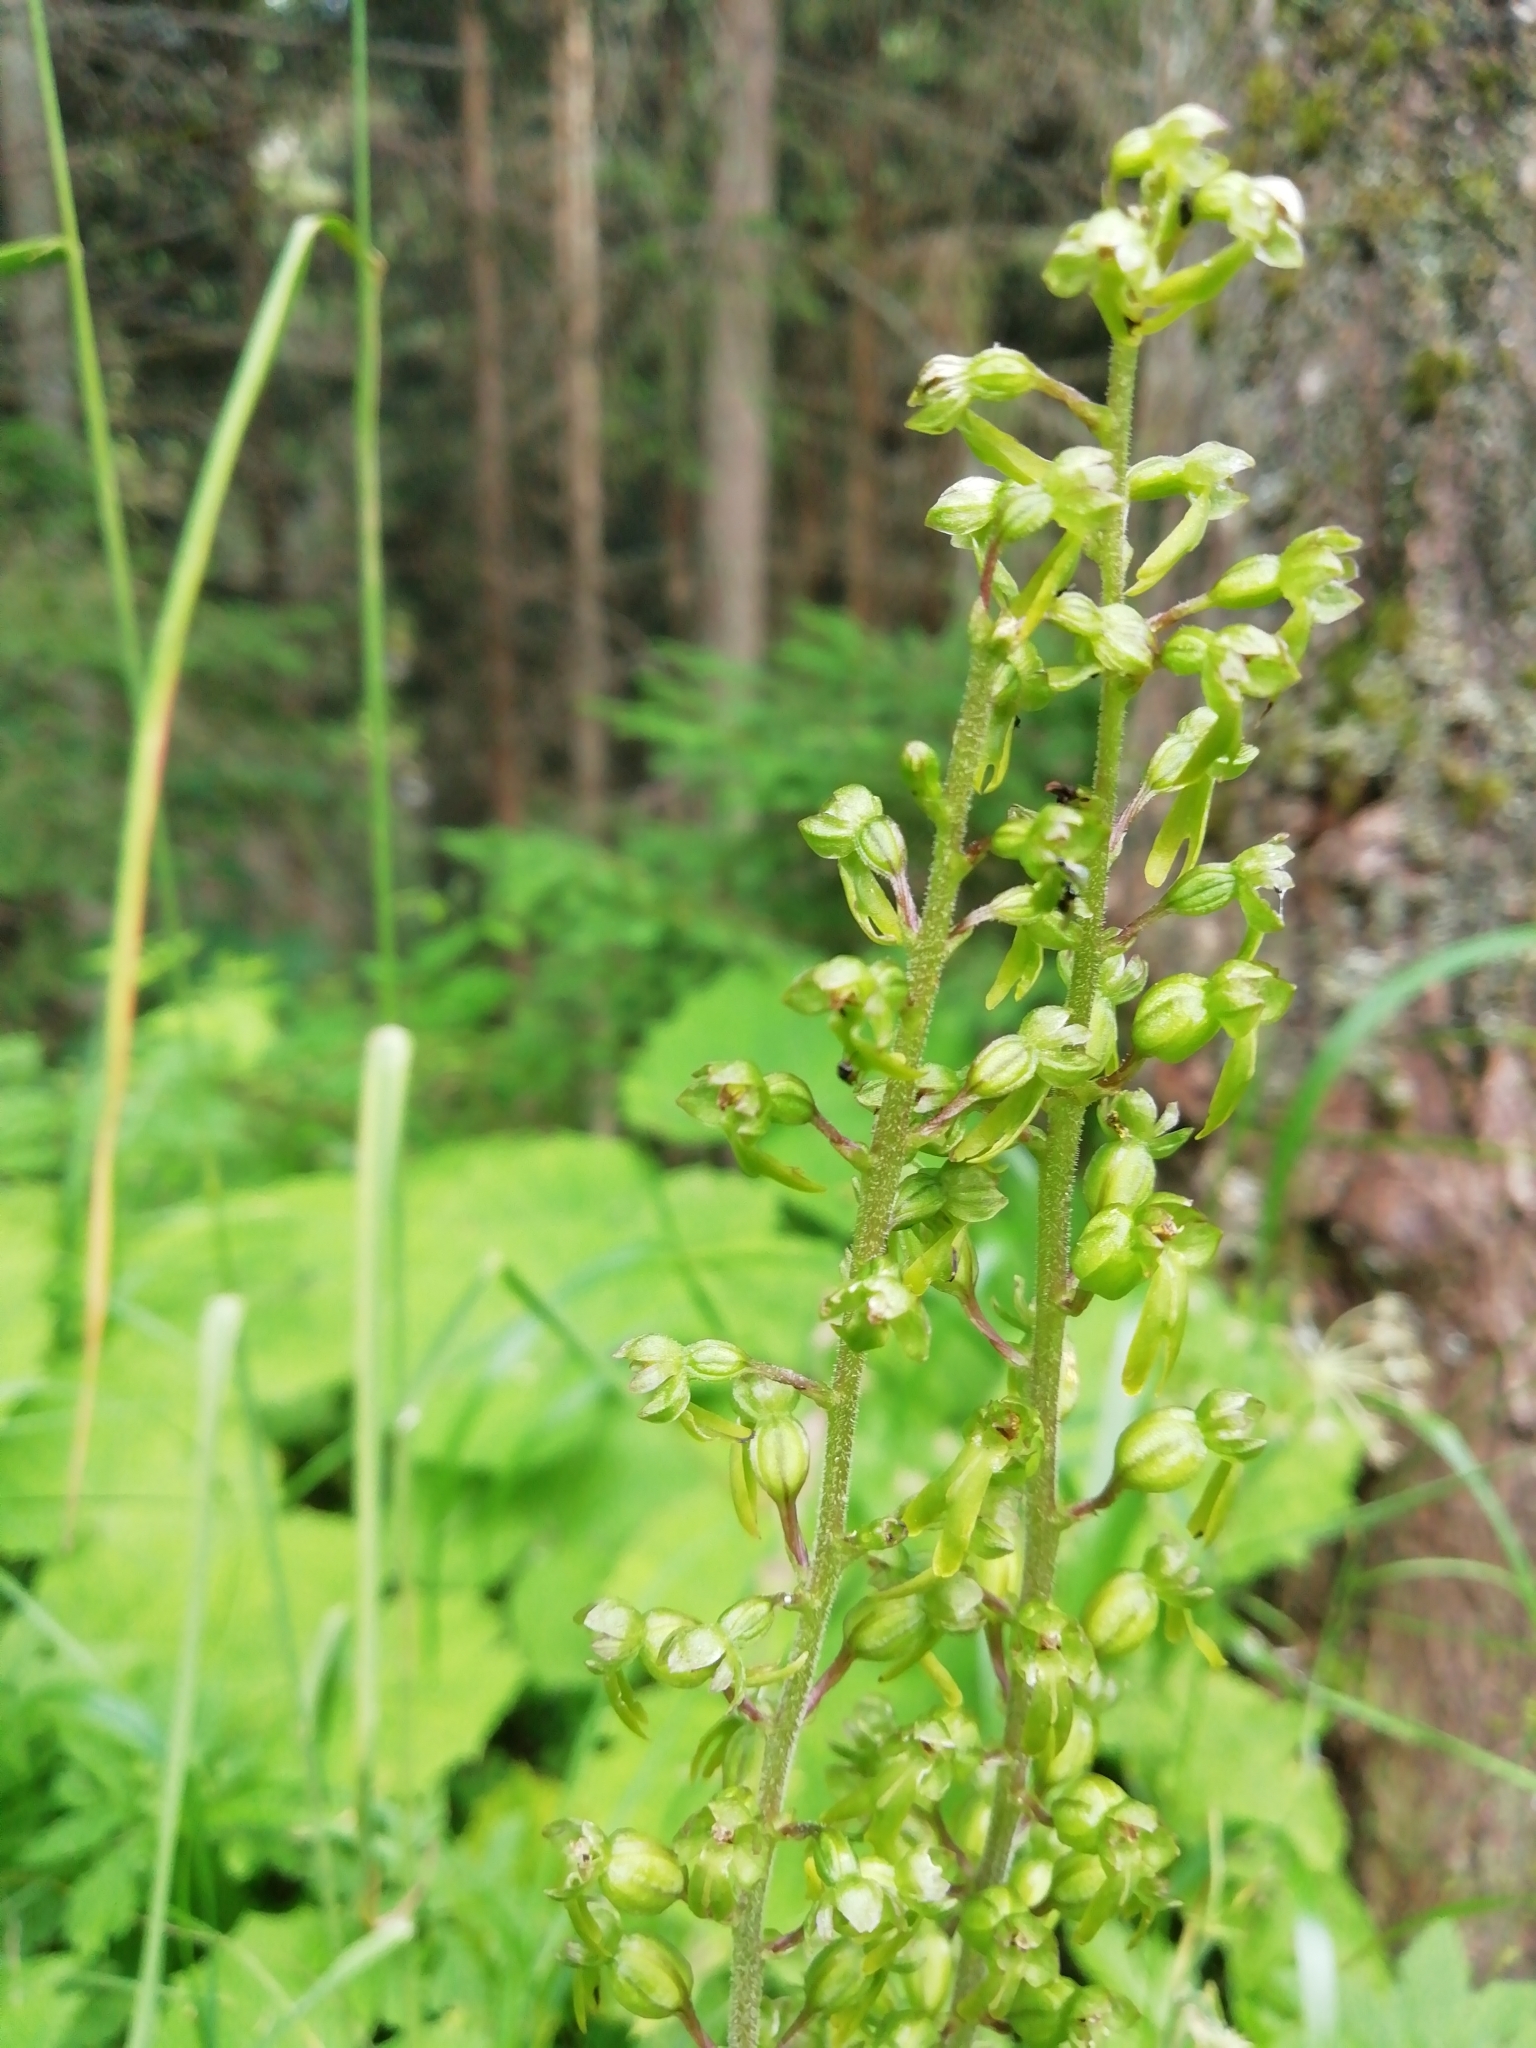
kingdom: Plantae
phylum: Tracheophyta
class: Liliopsida
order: Asparagales
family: Orchidaceae
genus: Neottia
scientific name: Neottia ovata
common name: Common twayblade
